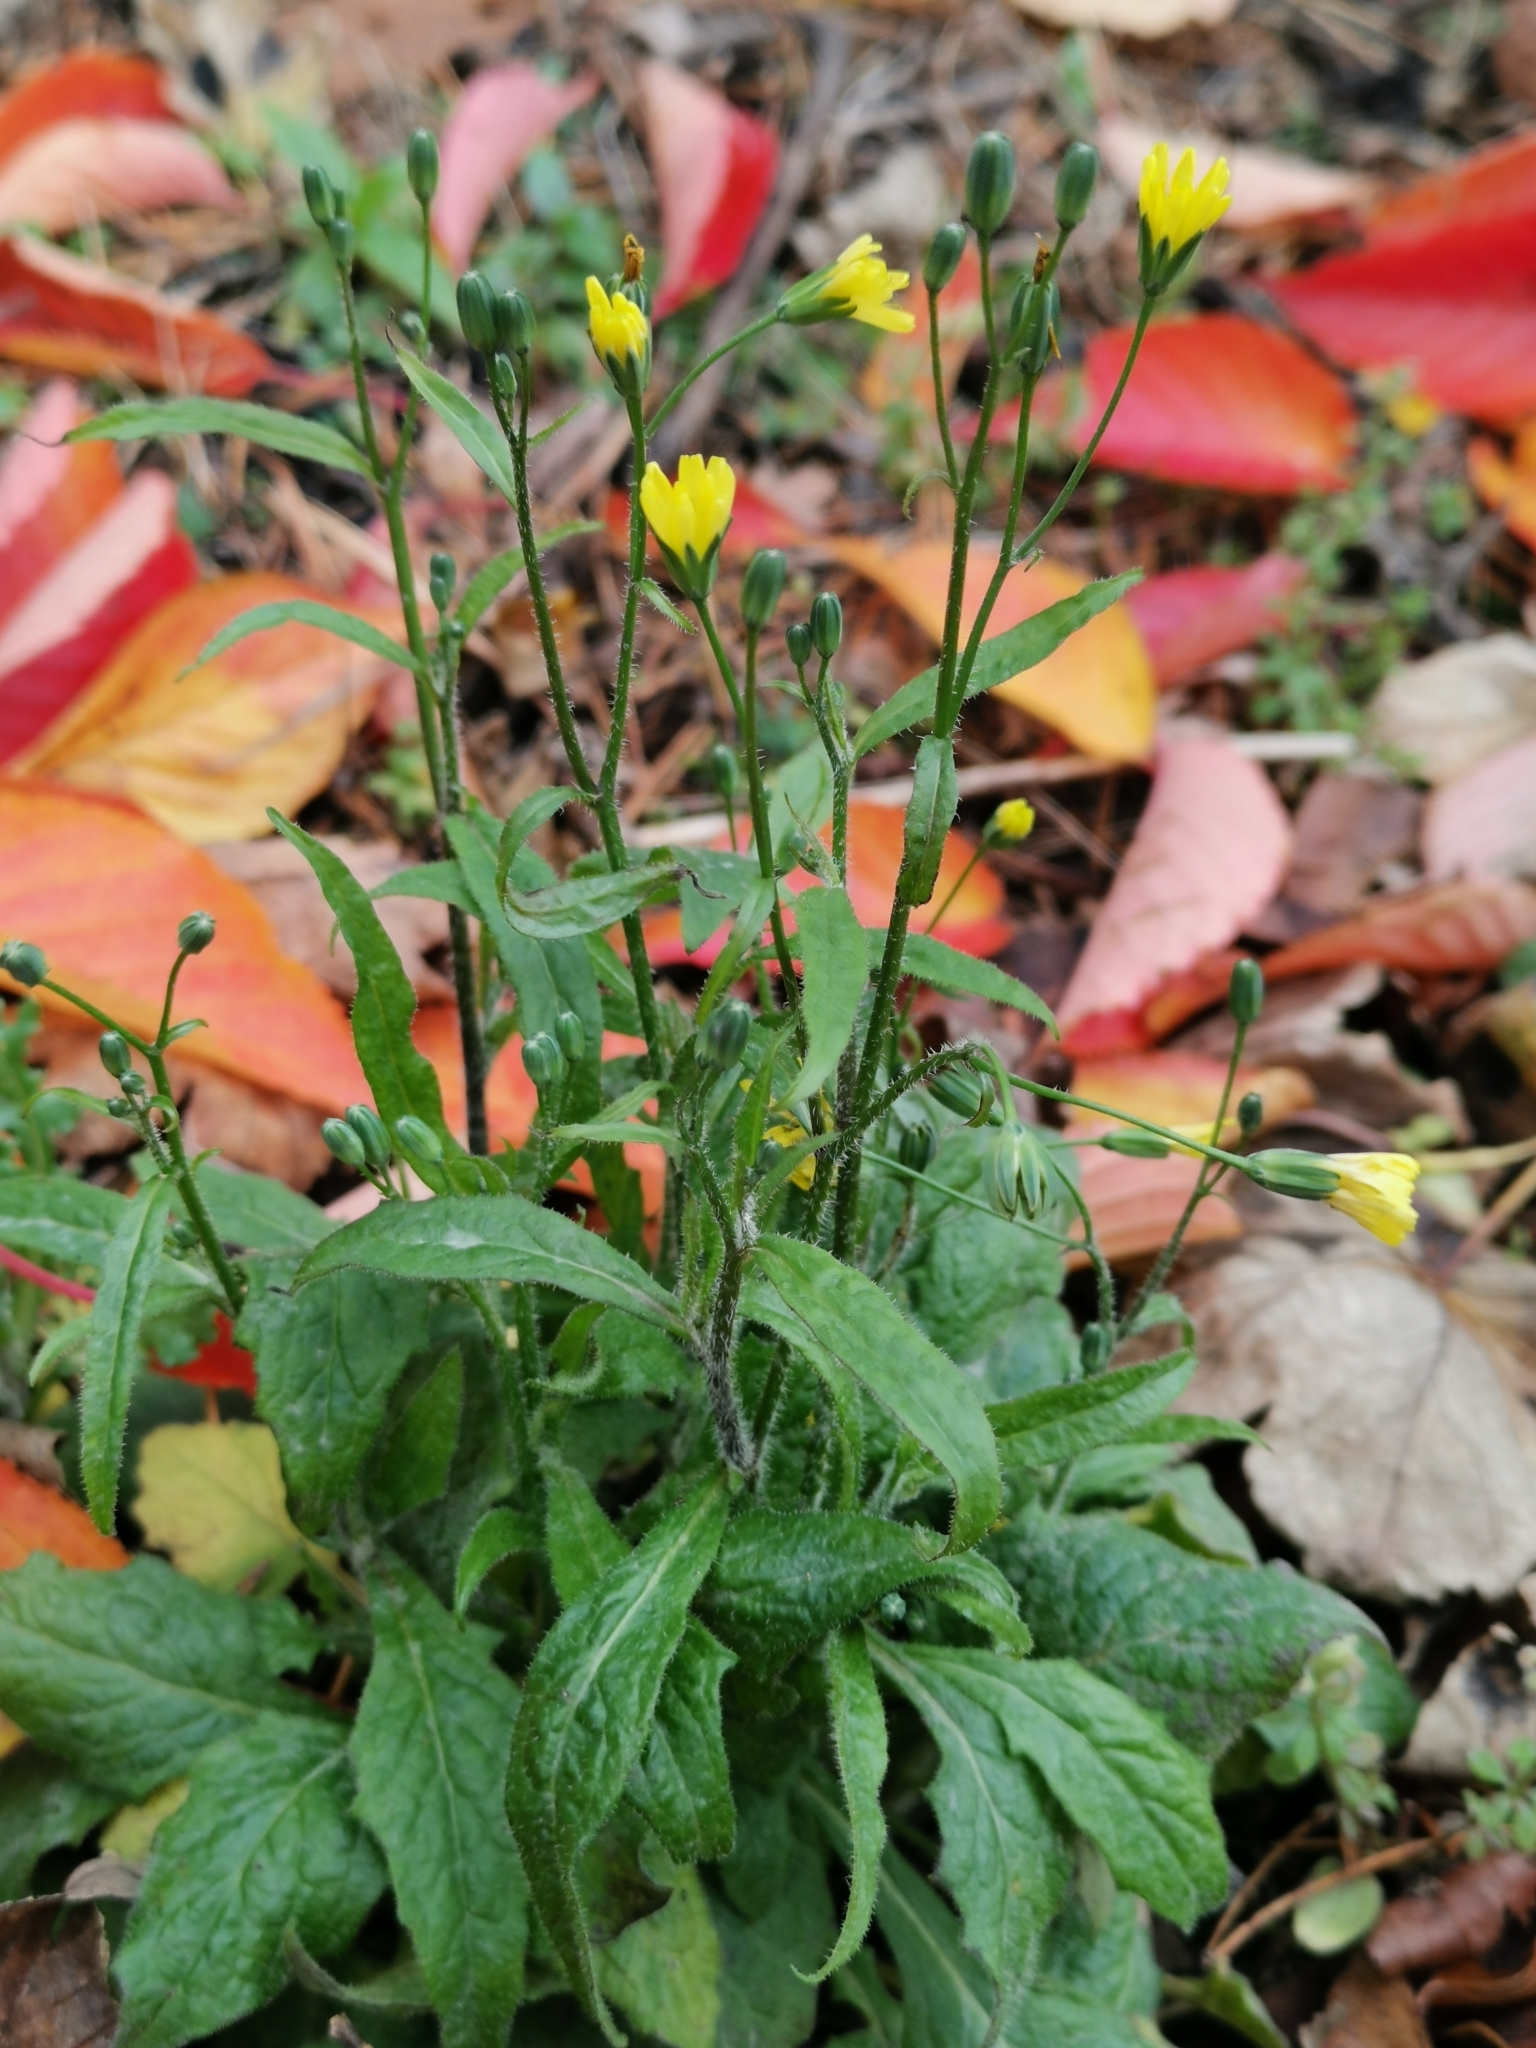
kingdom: Plantae
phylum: Tracheophyta
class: Magnoliopsida
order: Asterales
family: Asteraceae
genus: Lapsana
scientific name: Lapsana communis
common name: Nipplewort
